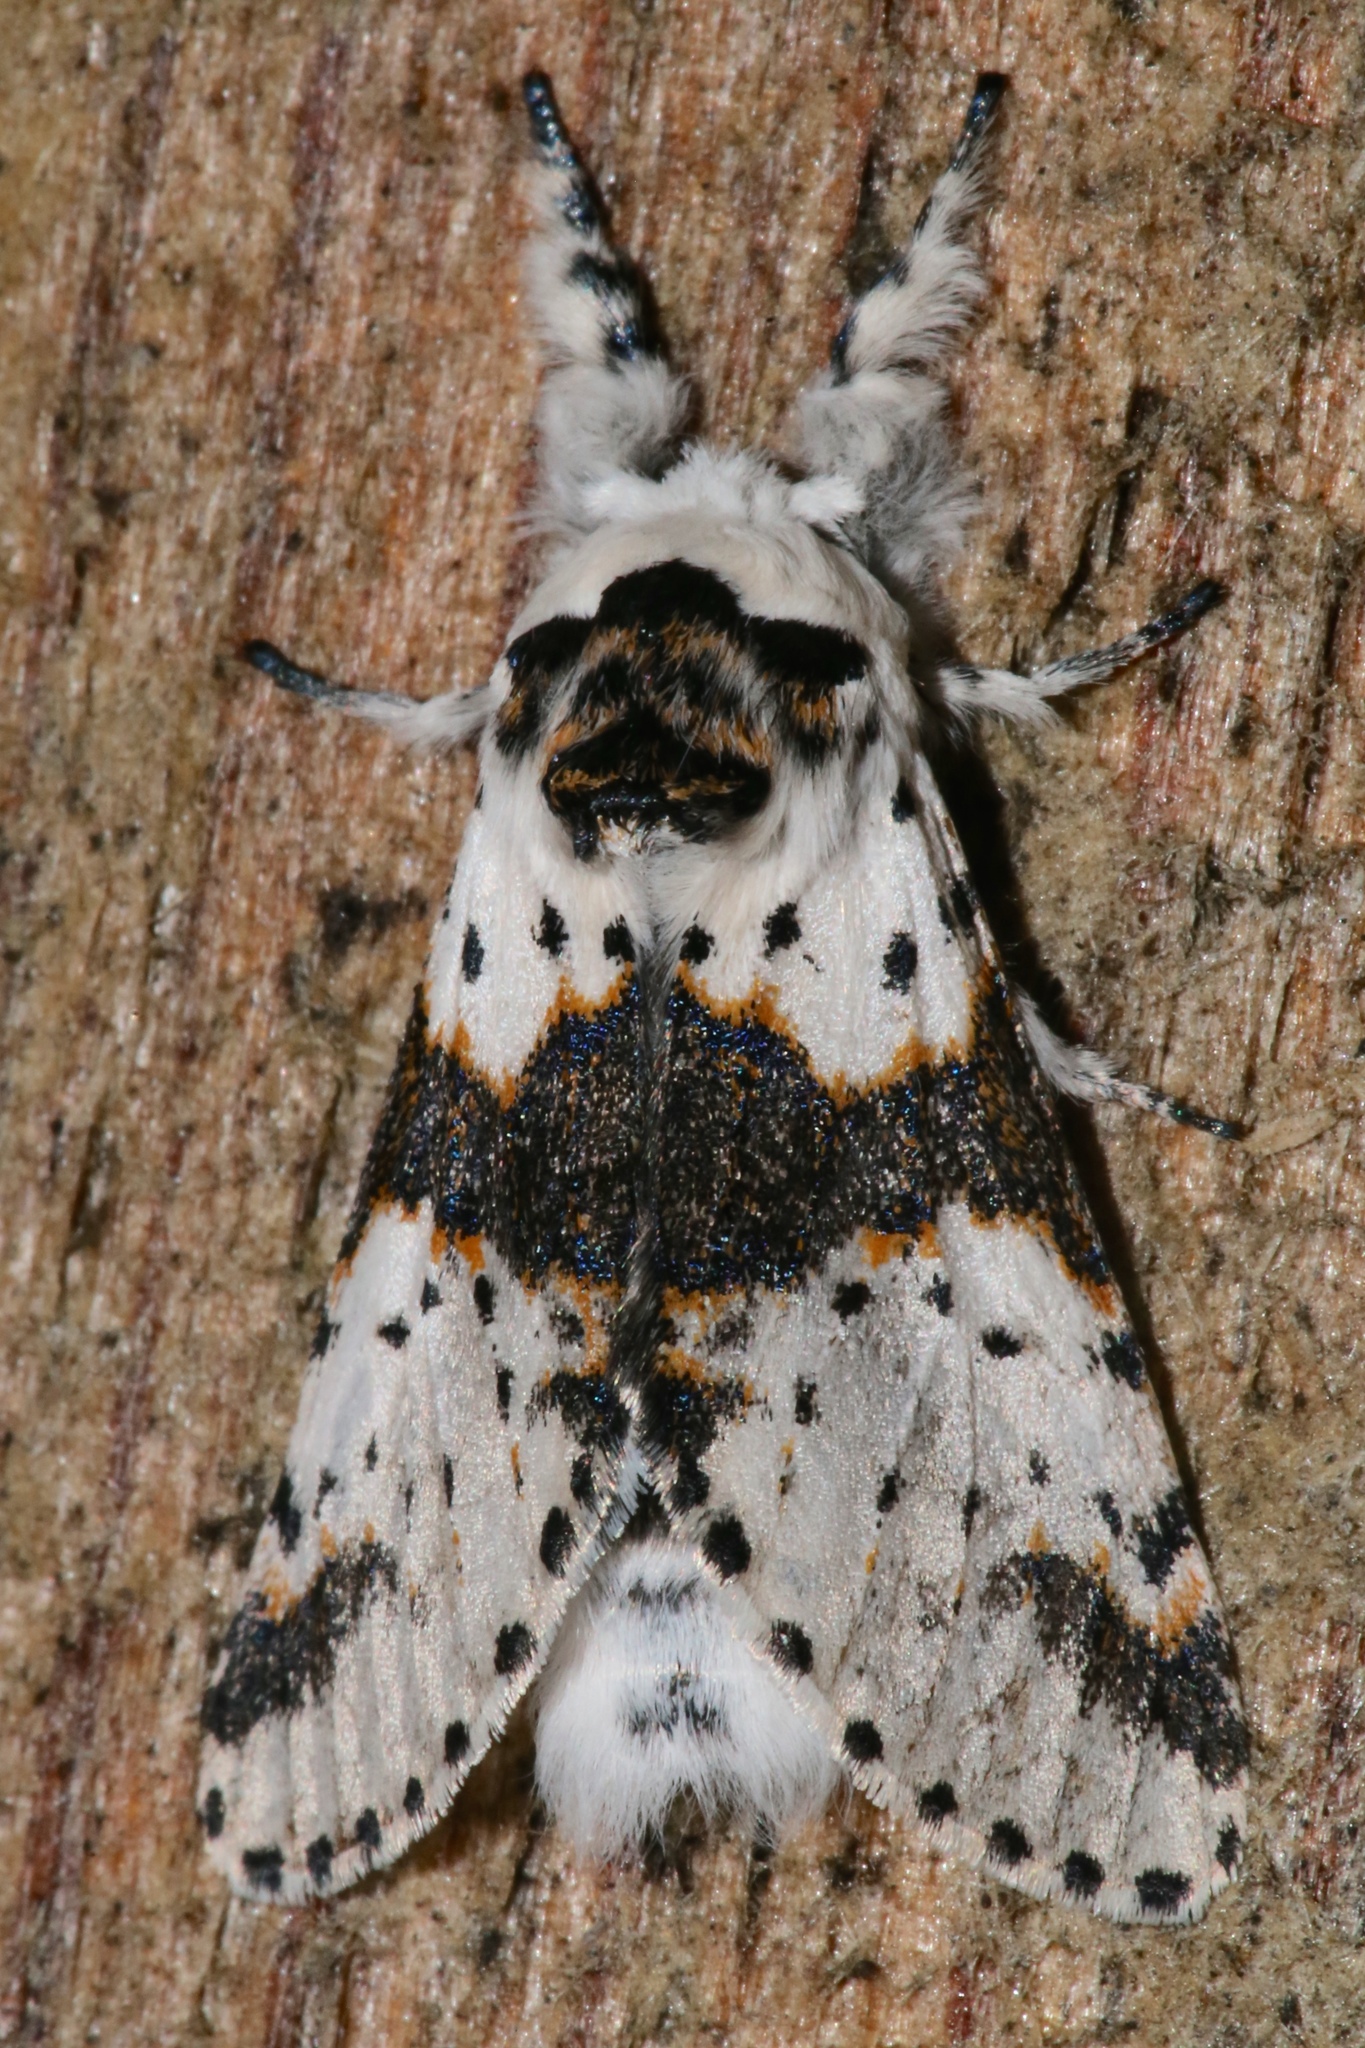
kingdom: Animalia
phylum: Arthropoda
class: Insecta
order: Lepidoptera
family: Notodontidae
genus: Furcula
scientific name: Furcula borealis
